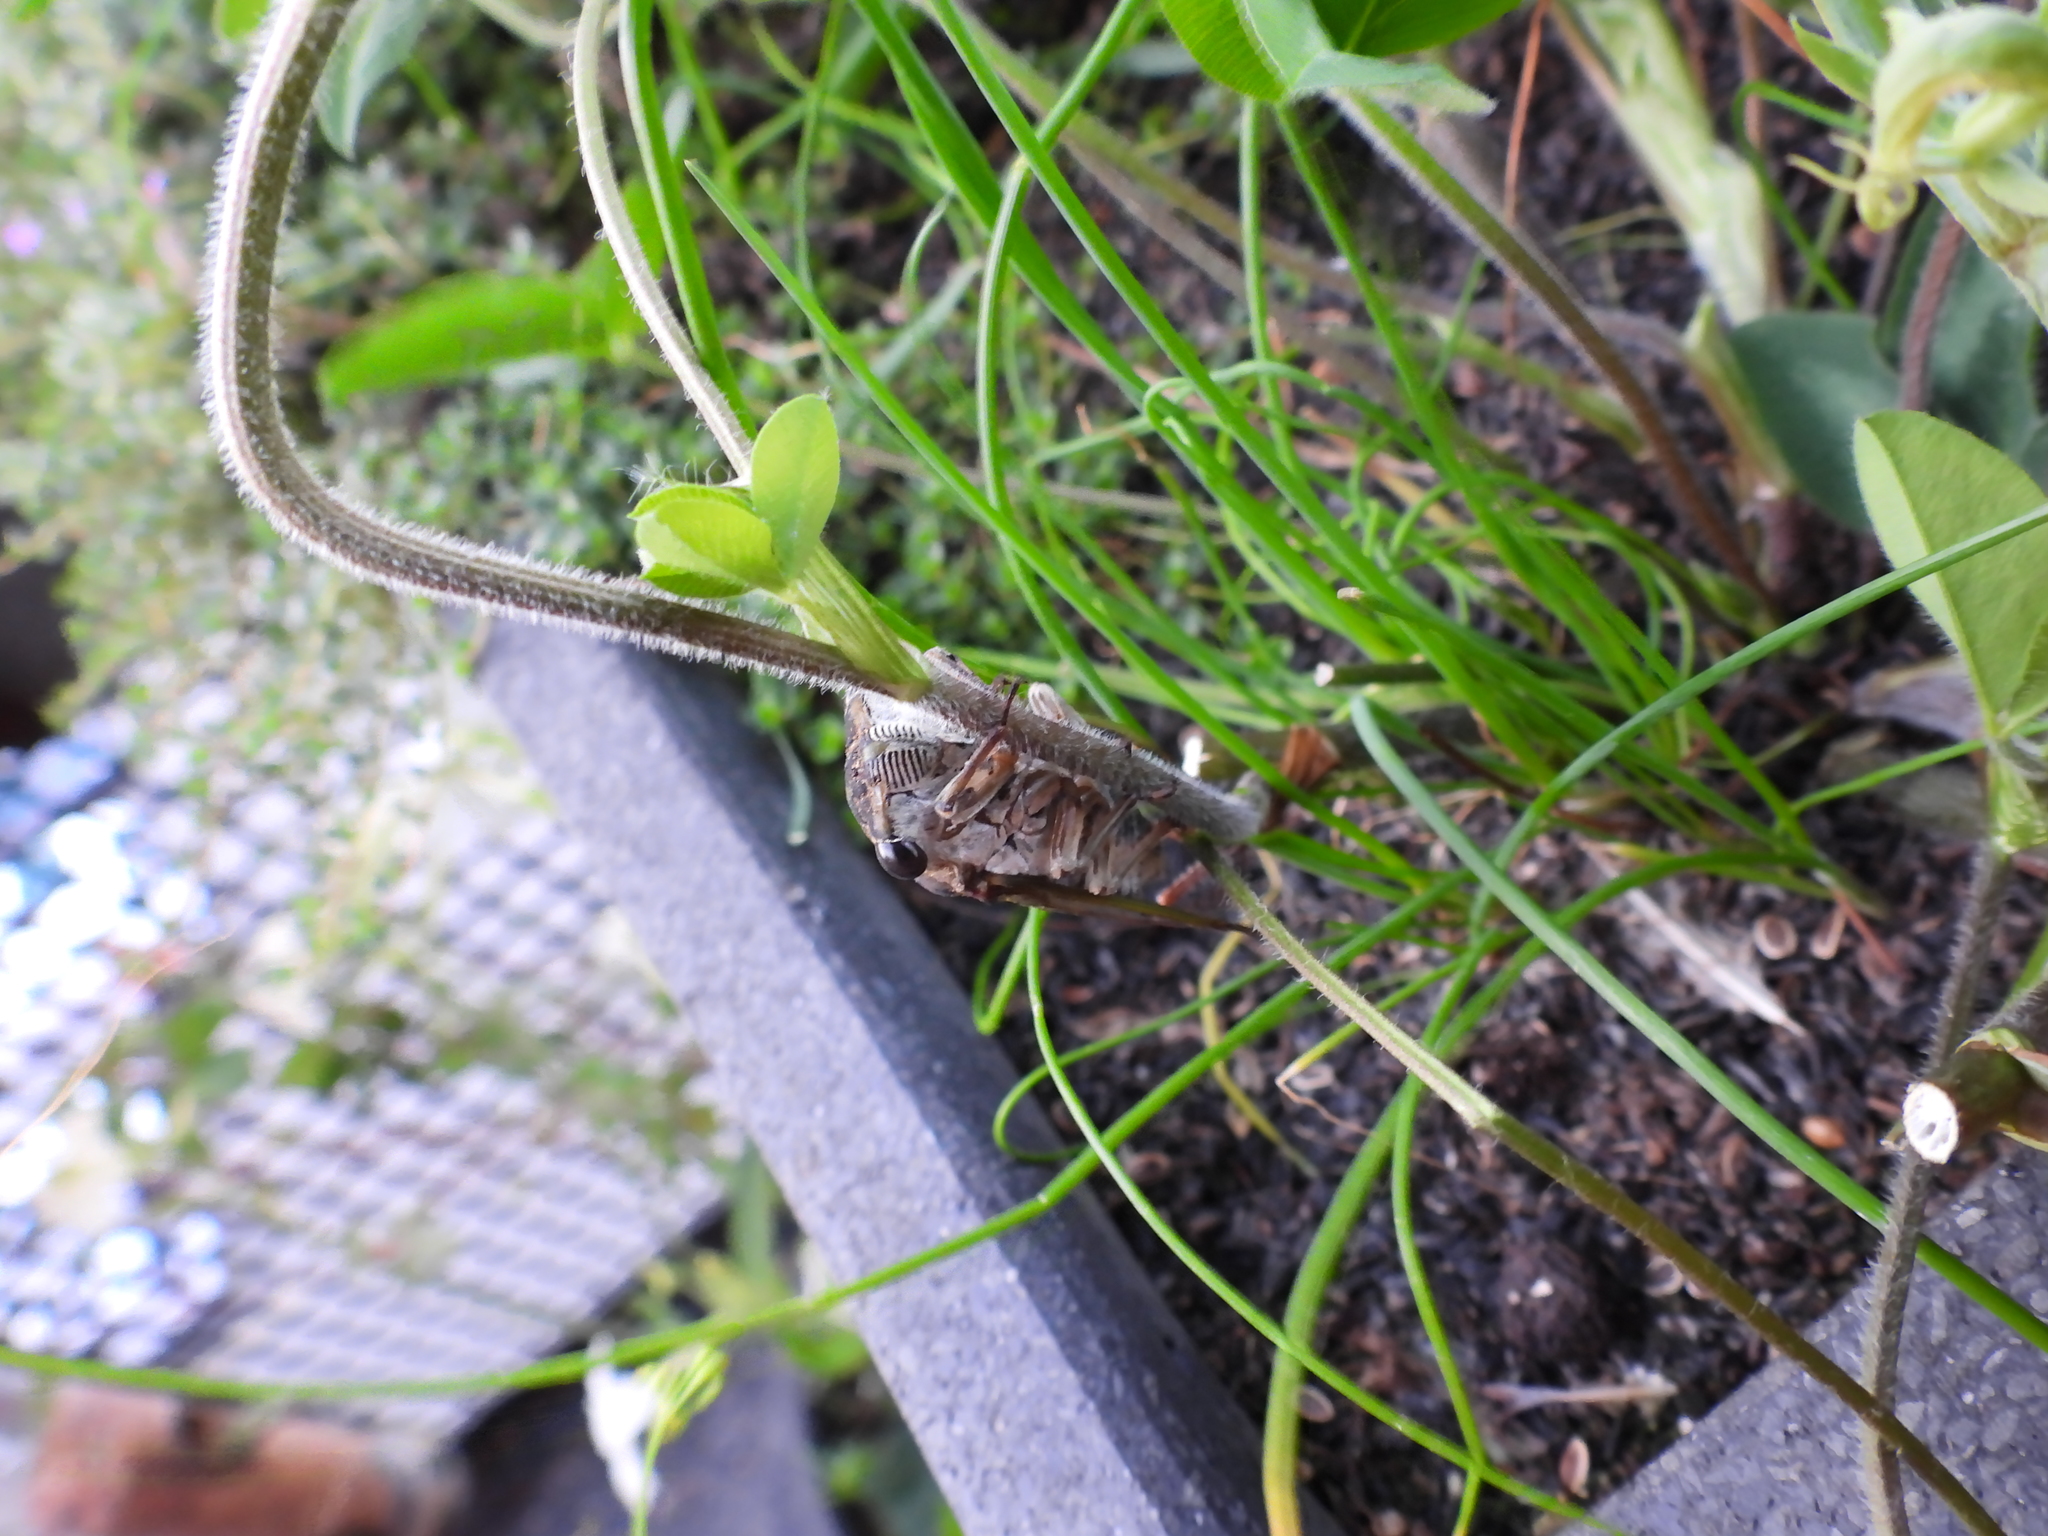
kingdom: Animalia
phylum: Arthropoda
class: Insecta
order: Hemiptera
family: Cicadidae
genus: Neotibicen
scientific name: Neotibicen canicularis
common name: God-day cicada
